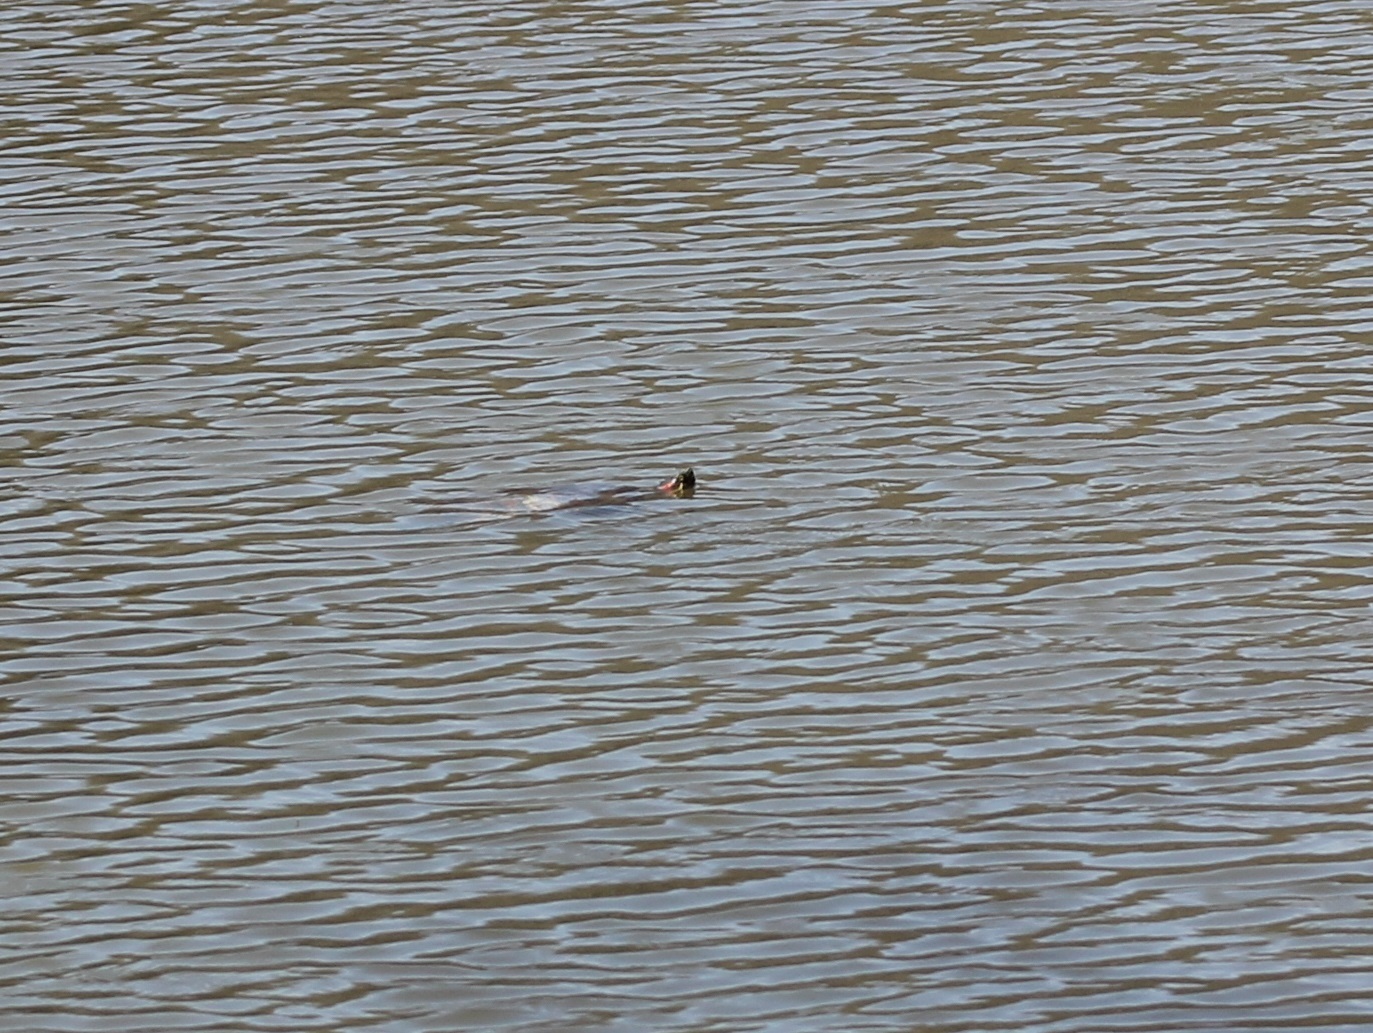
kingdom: Animalia
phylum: Chordata
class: Testudines
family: Emydidae
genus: Trachemys
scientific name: Trachemys scripta
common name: Slider
